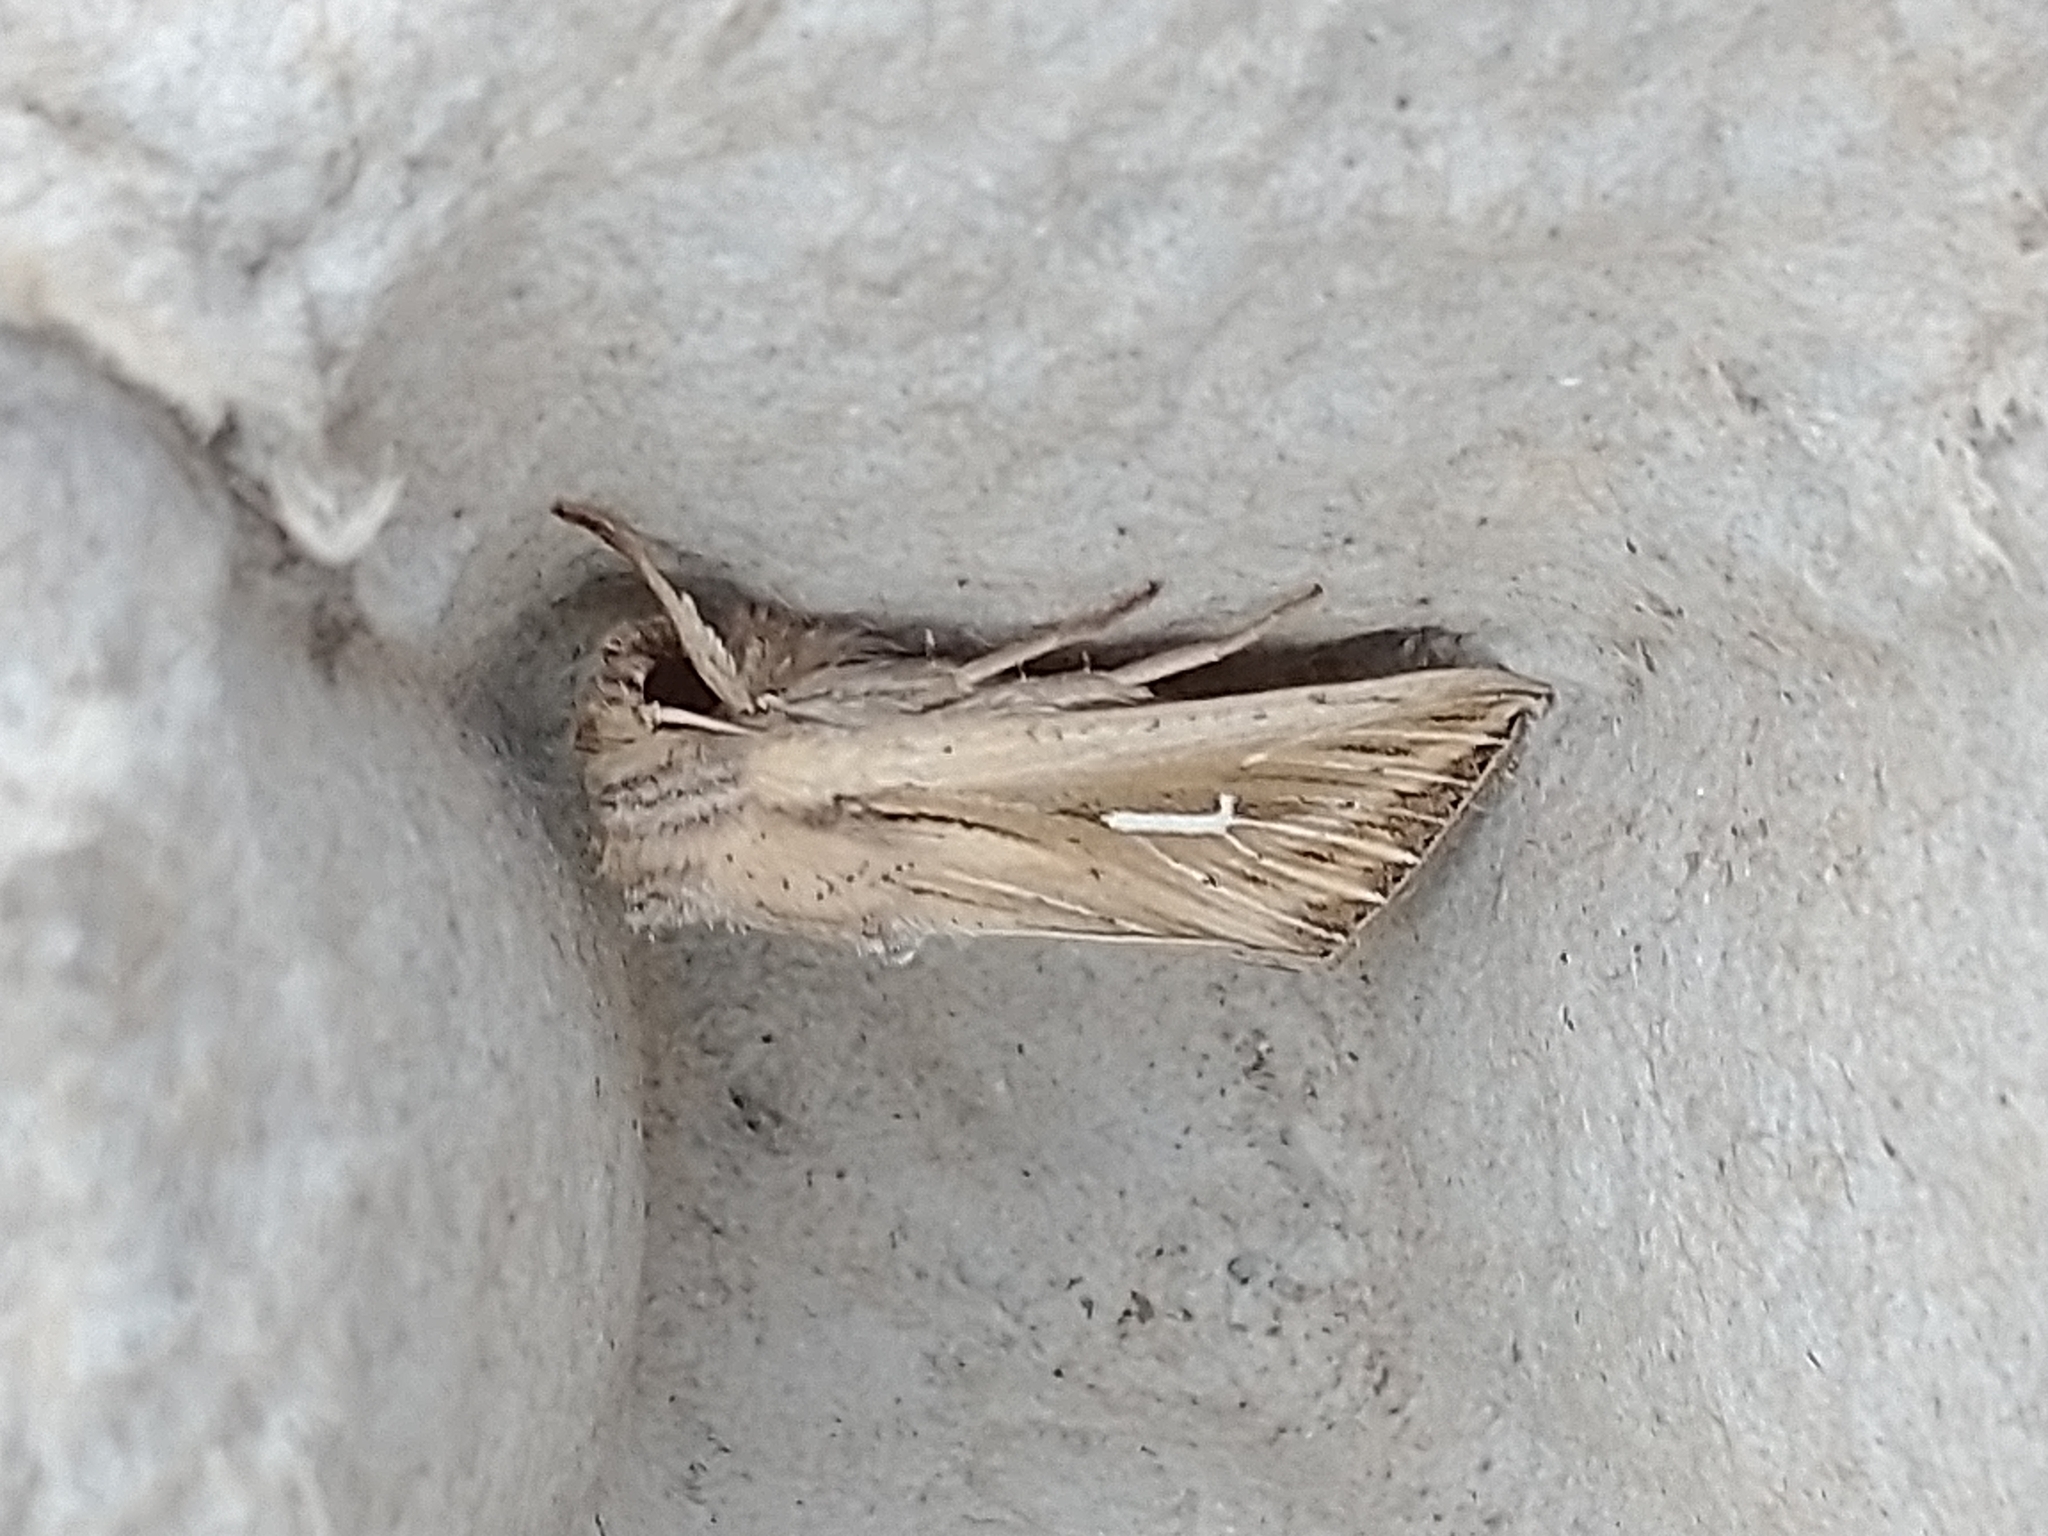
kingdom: Animalia
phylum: Arthropoda
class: Insecta
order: Lepidoptera
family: Noctuidae
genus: Mythimna
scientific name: Mythimna l-album
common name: L-album wainscot
